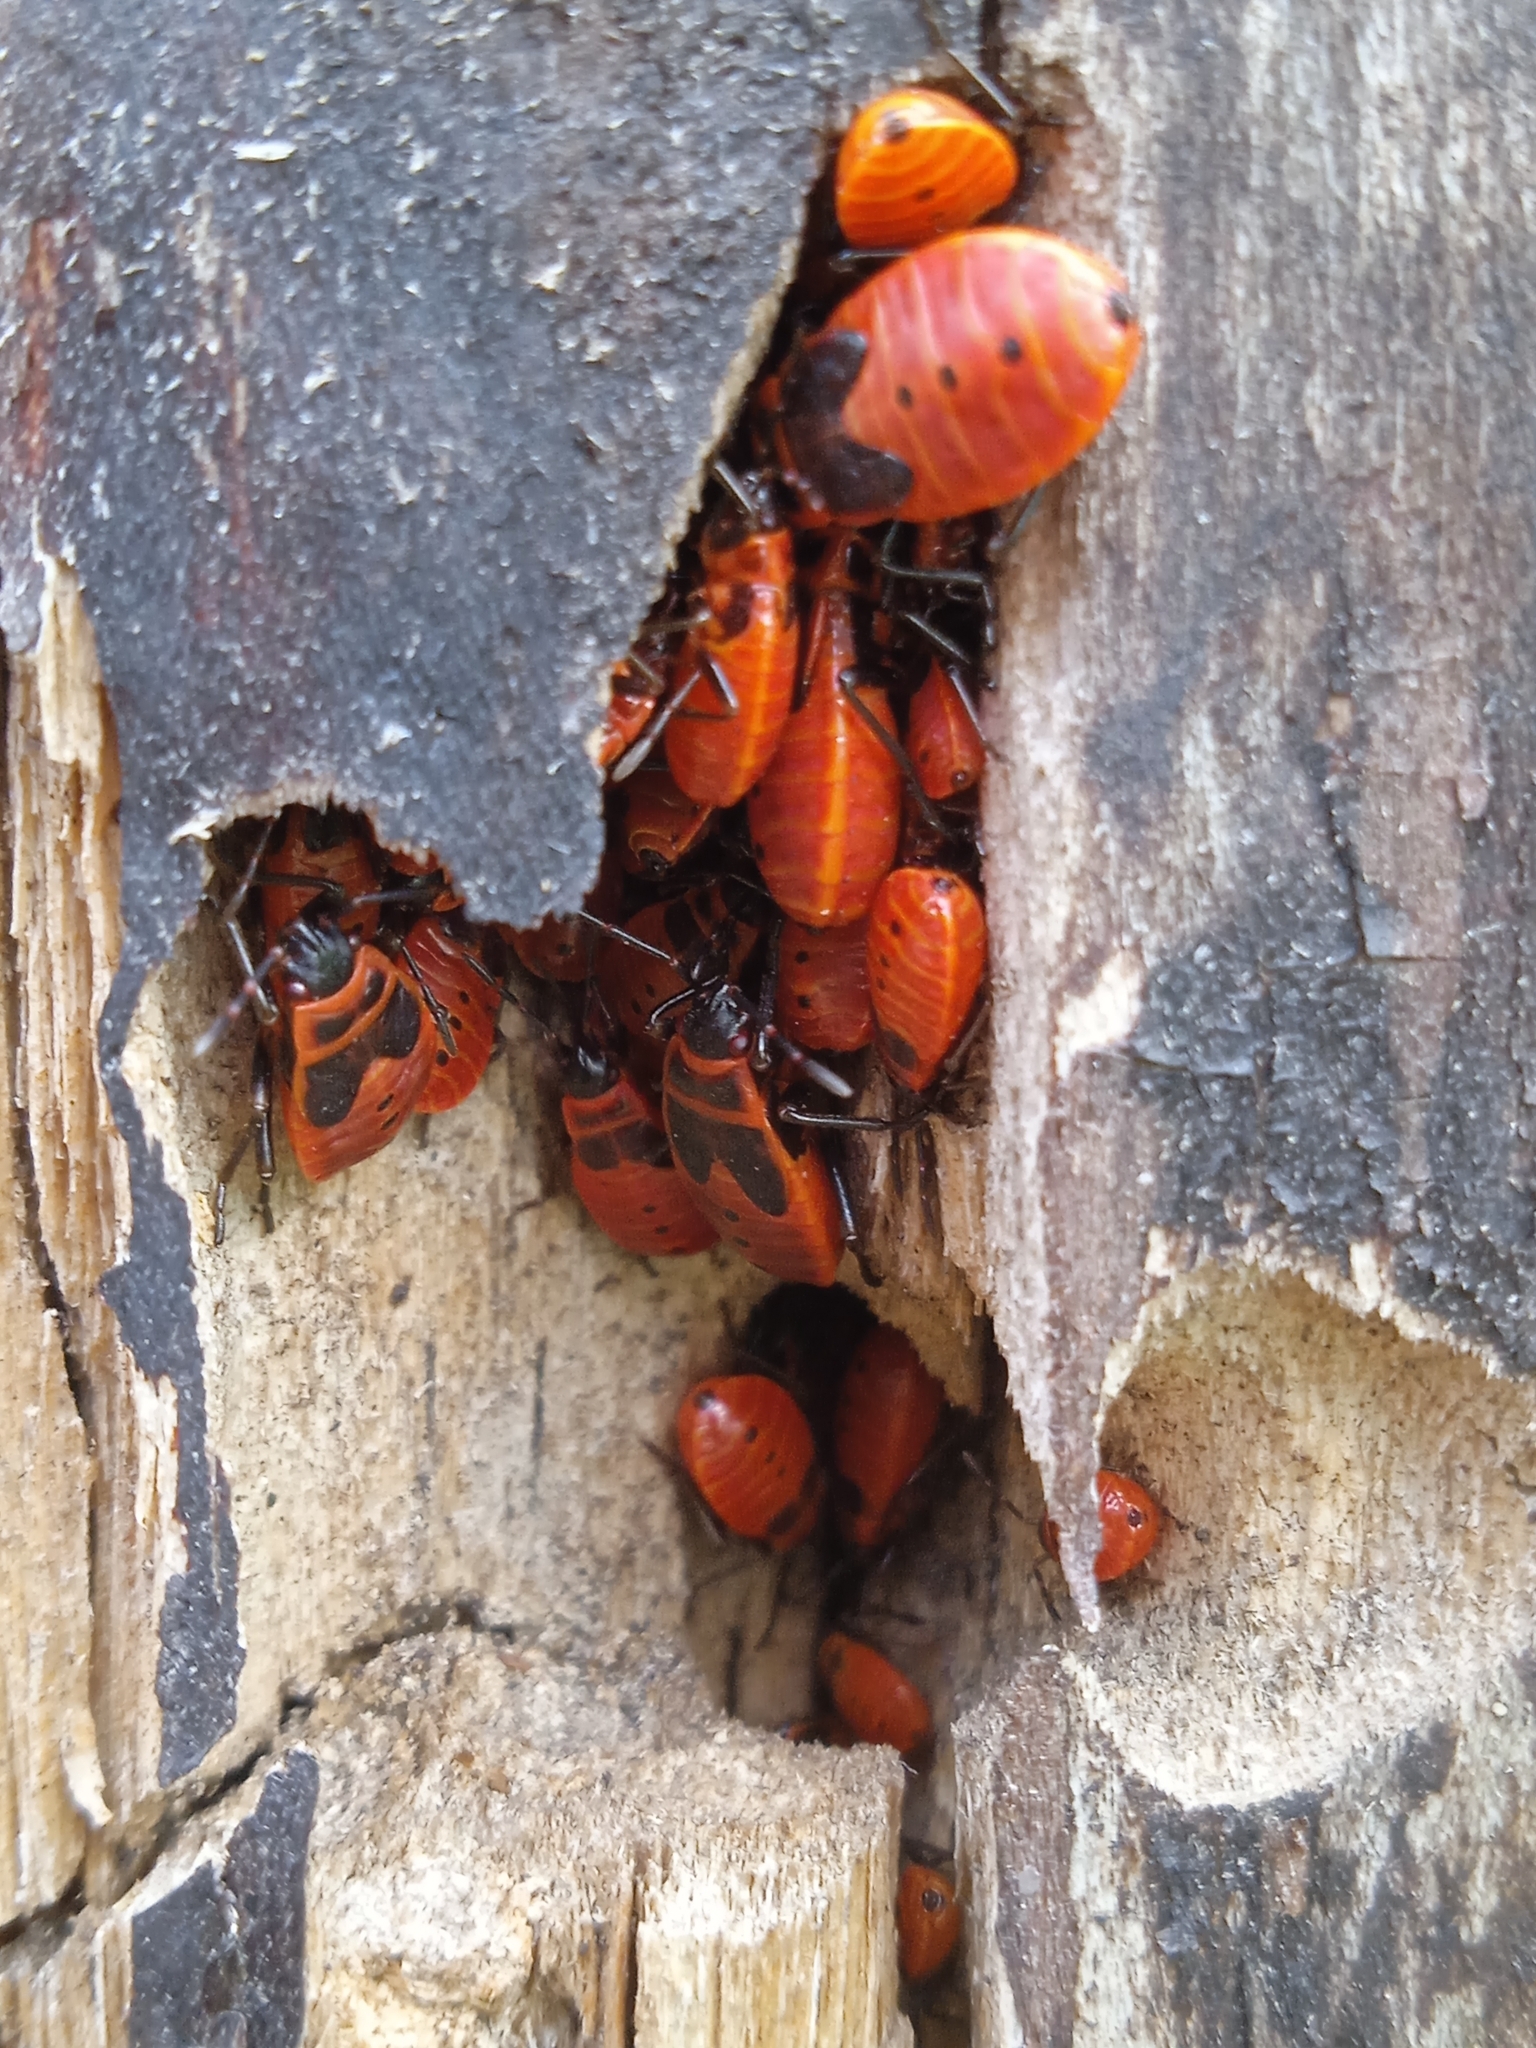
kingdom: Animalia
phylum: Arthropoda
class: Insecta
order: Hemiptera
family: Pyrrhocoridae
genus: Pyrrhocoris
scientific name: Pyrrhocoris apterus
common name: Firebug
